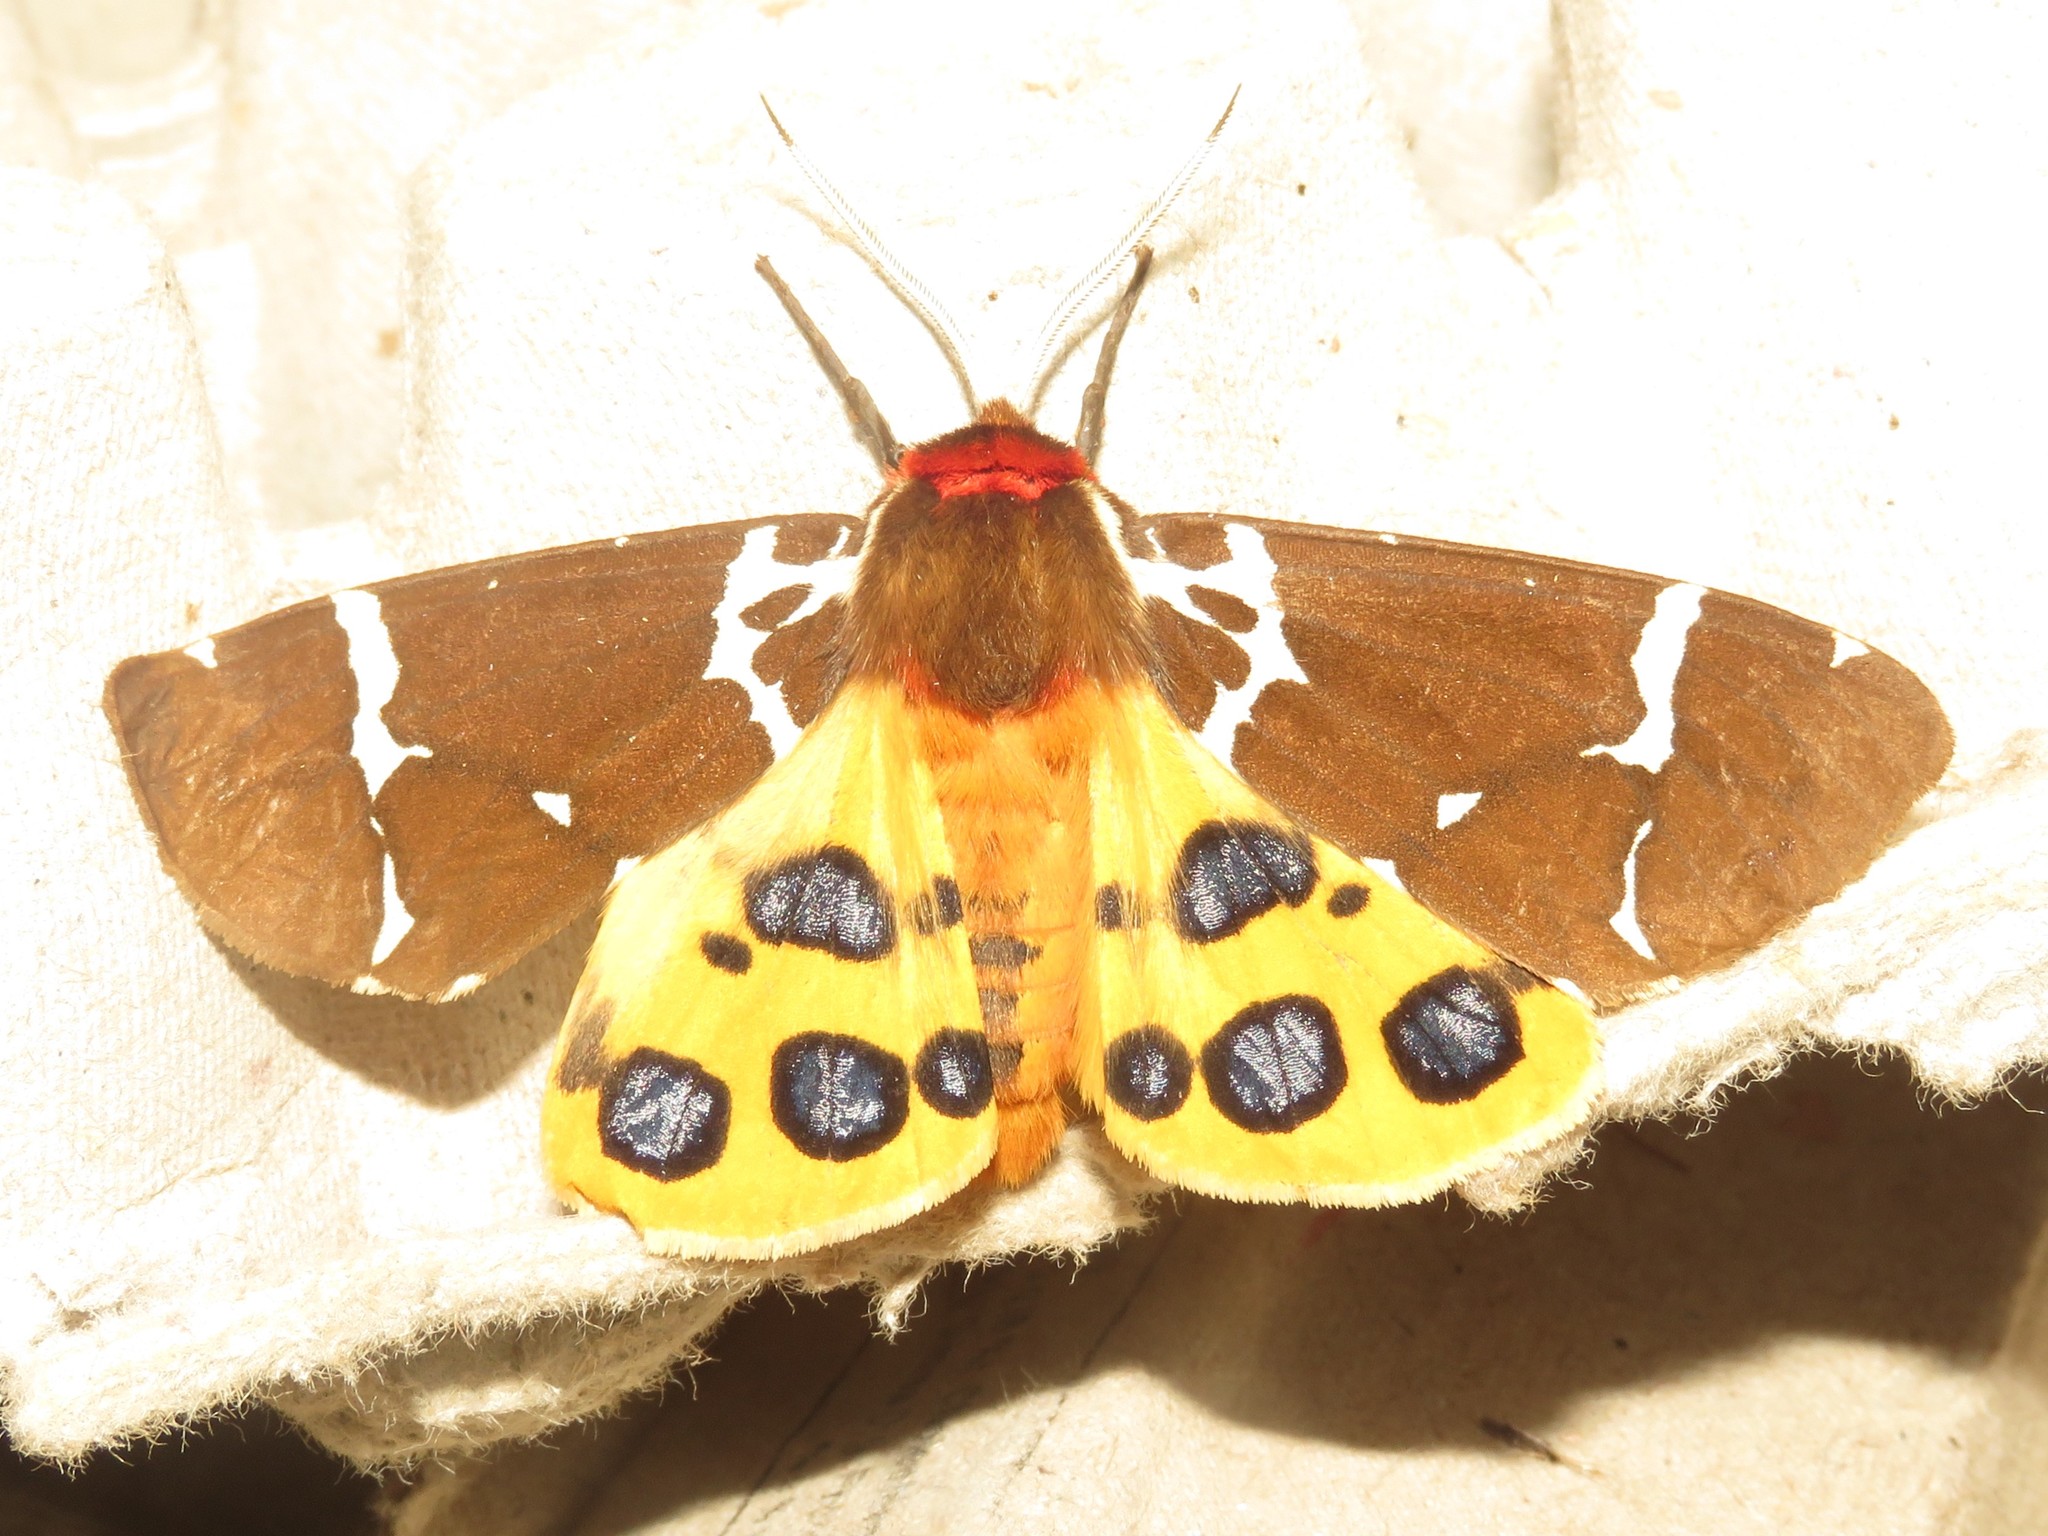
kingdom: Animalia
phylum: Arthropoda
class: Insecta
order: Lepidoptera
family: Erebidae
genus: Arctia
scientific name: Arctia caja
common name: Garden tiger
